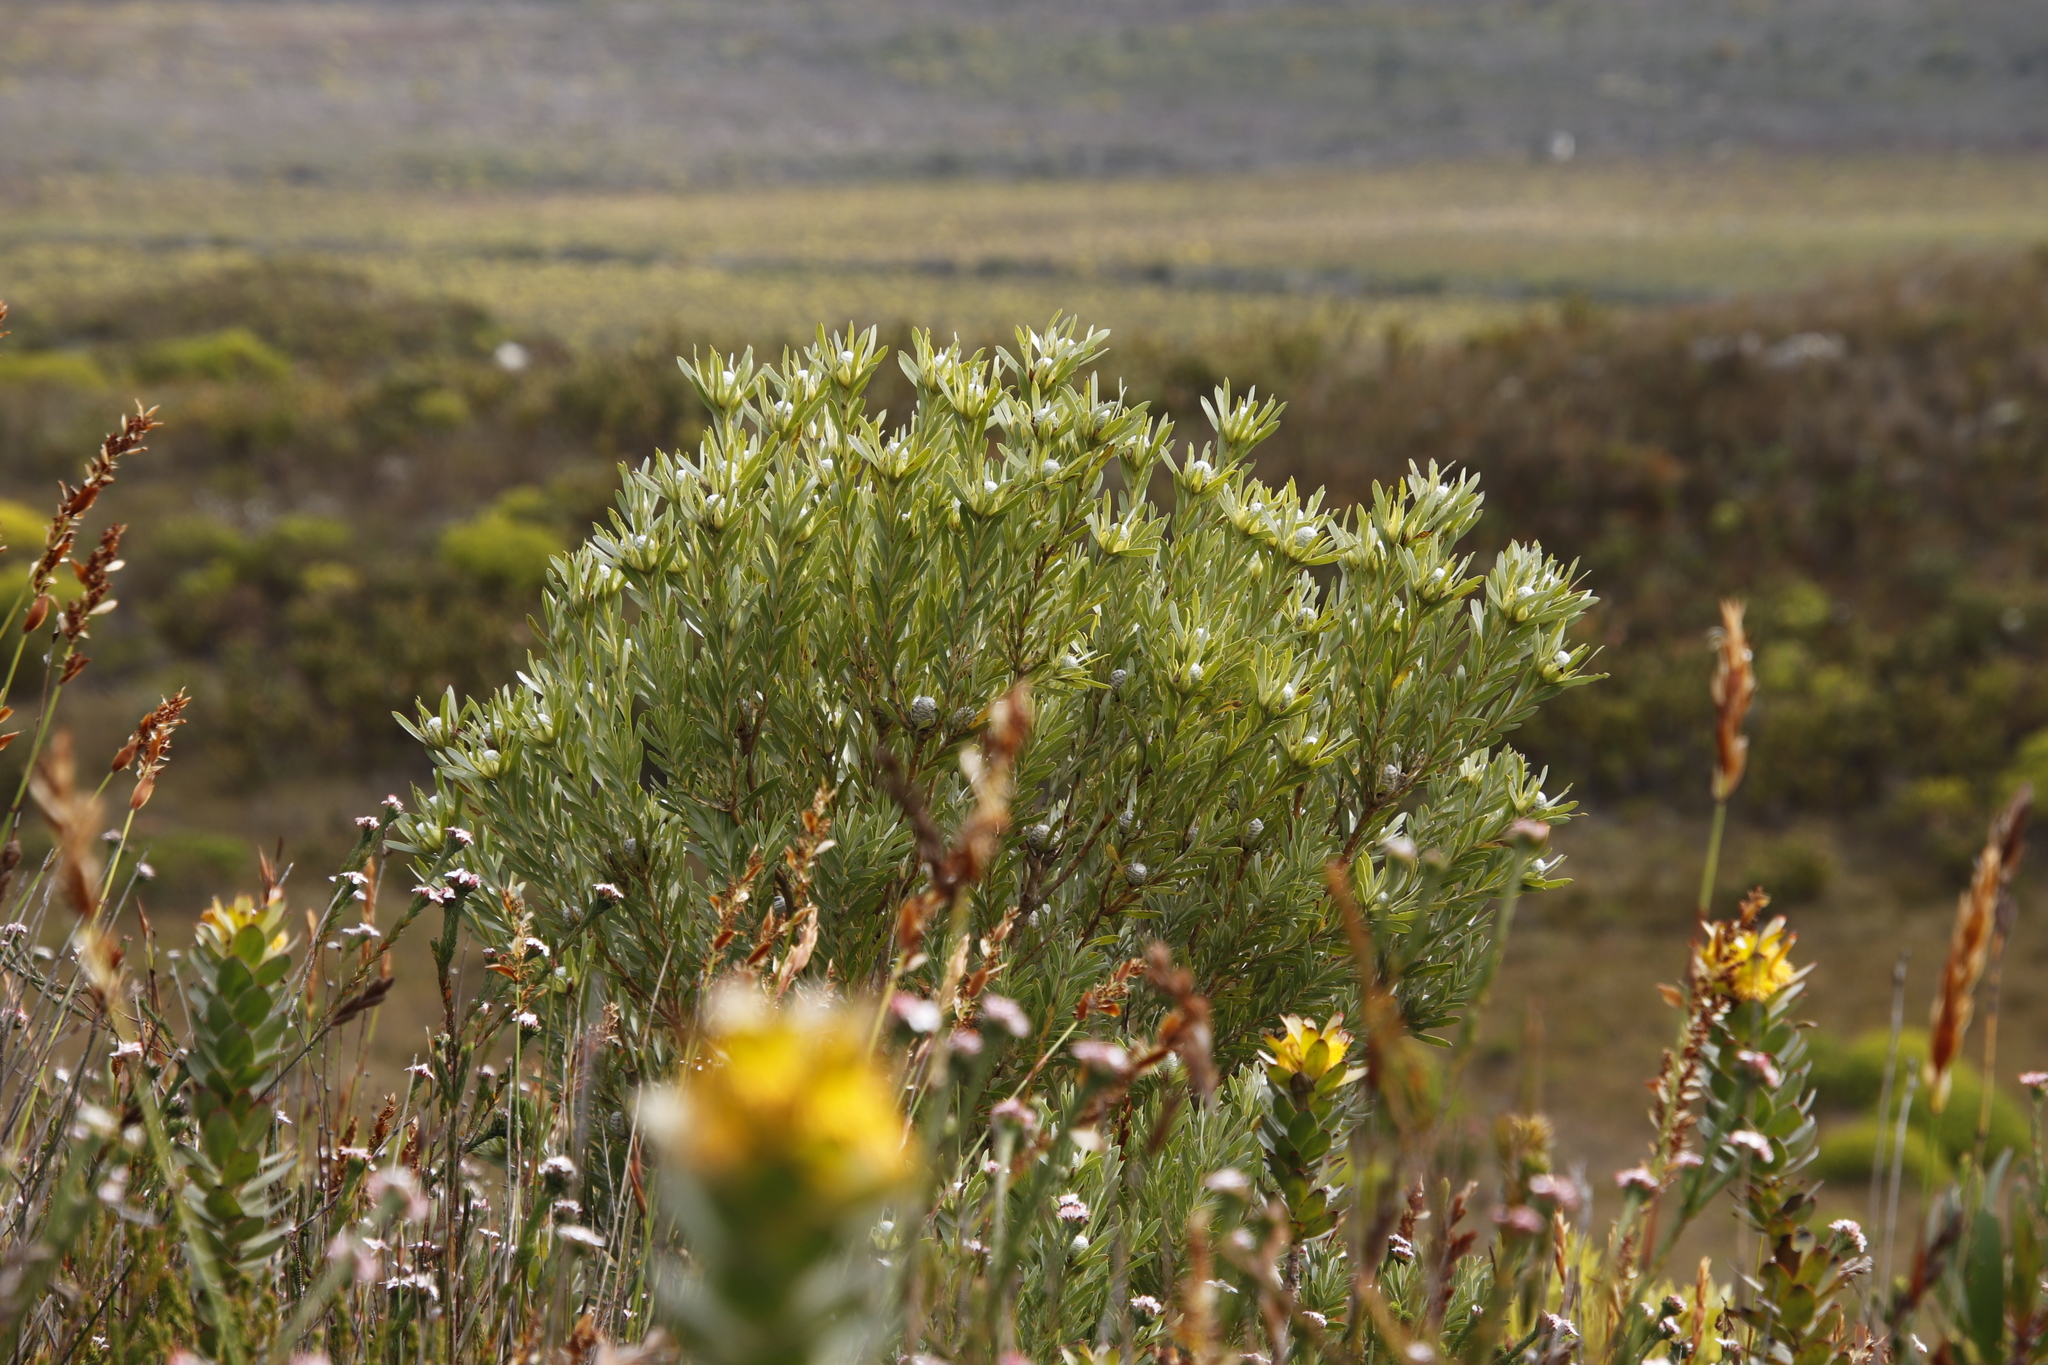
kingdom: Plantae
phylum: Tracheophyta
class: Magnoliopsida
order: Proteales
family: Proteaceae
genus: Leucadendron
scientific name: Leucadendron meridianum
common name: Limestone conebush
